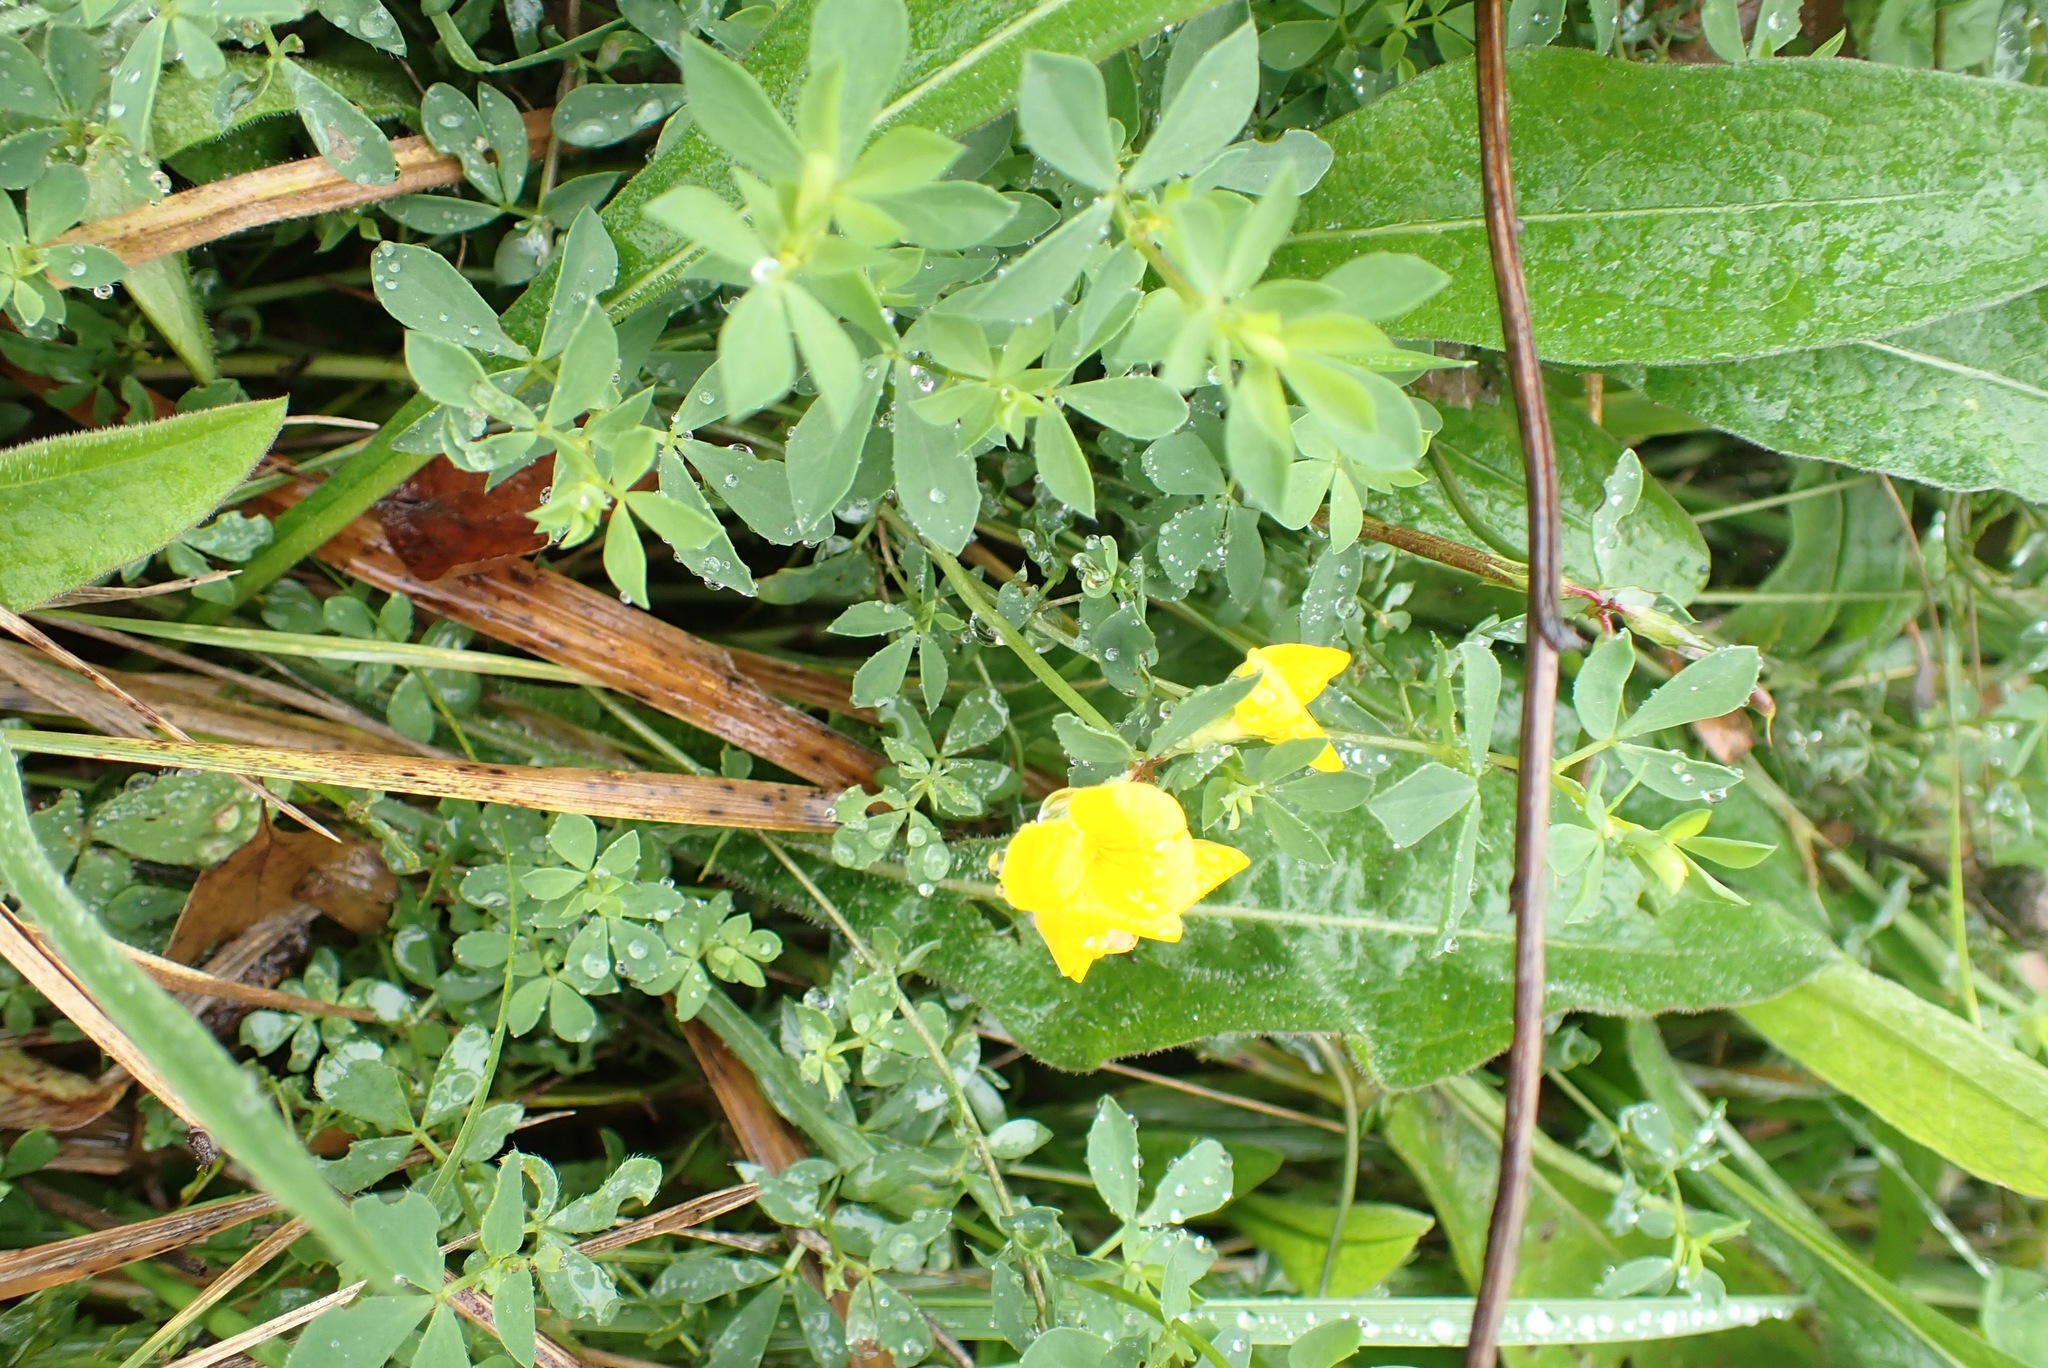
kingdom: Plantae
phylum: Tracheophyta
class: Magnoliopsida
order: Fabales
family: Fabaceae
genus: Lotus
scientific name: Lotus corniculatus
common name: Common bird's-foot-trefoil
